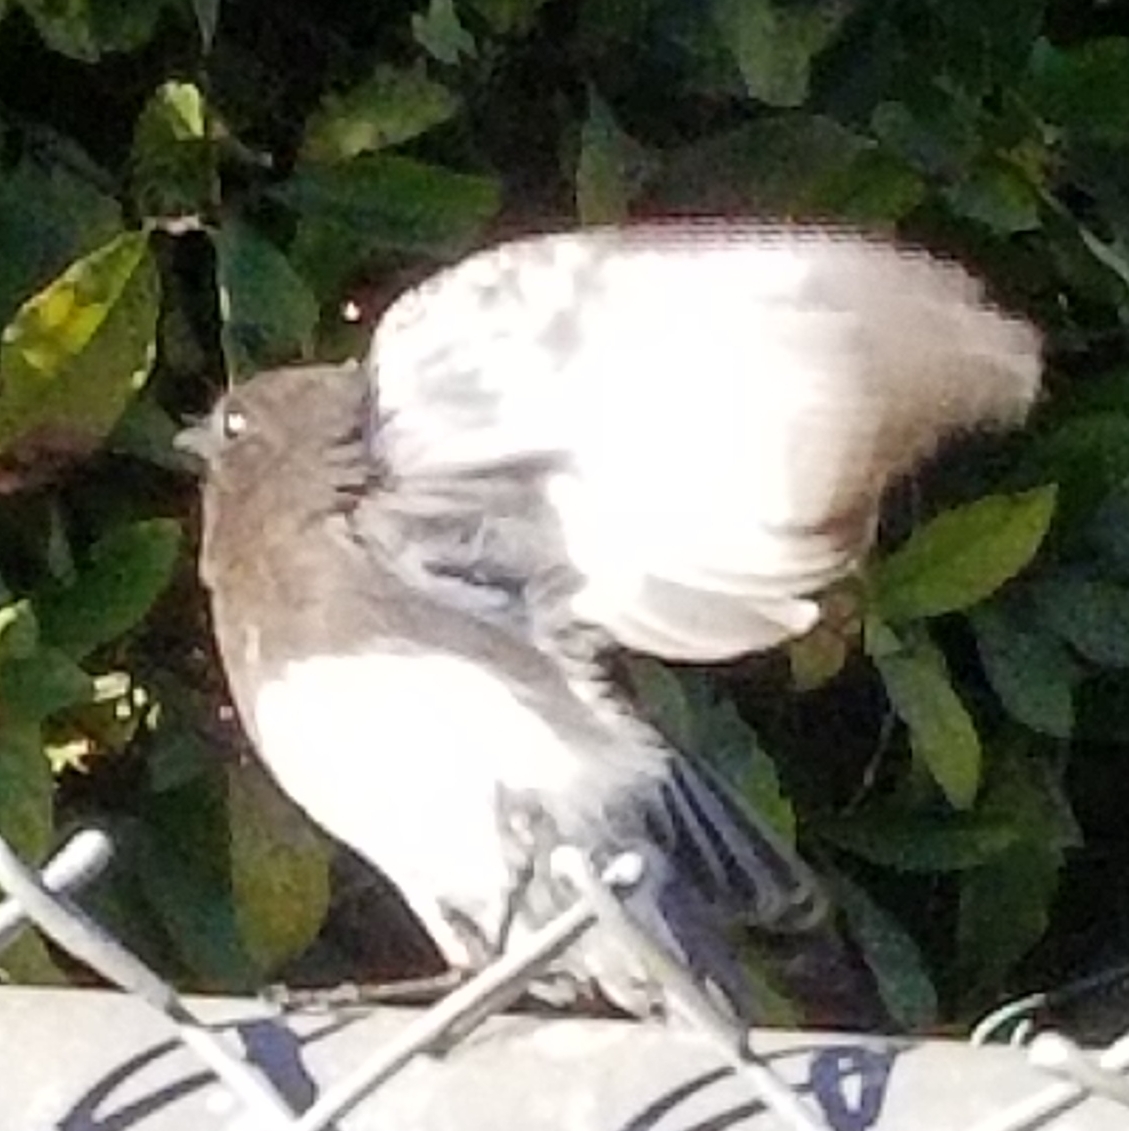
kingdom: Animalia
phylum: Chordata
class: Aves
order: Passeriformes
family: Tyrannidae
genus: Sayornis
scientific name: Sayornis nigricans
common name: Black phoebe
